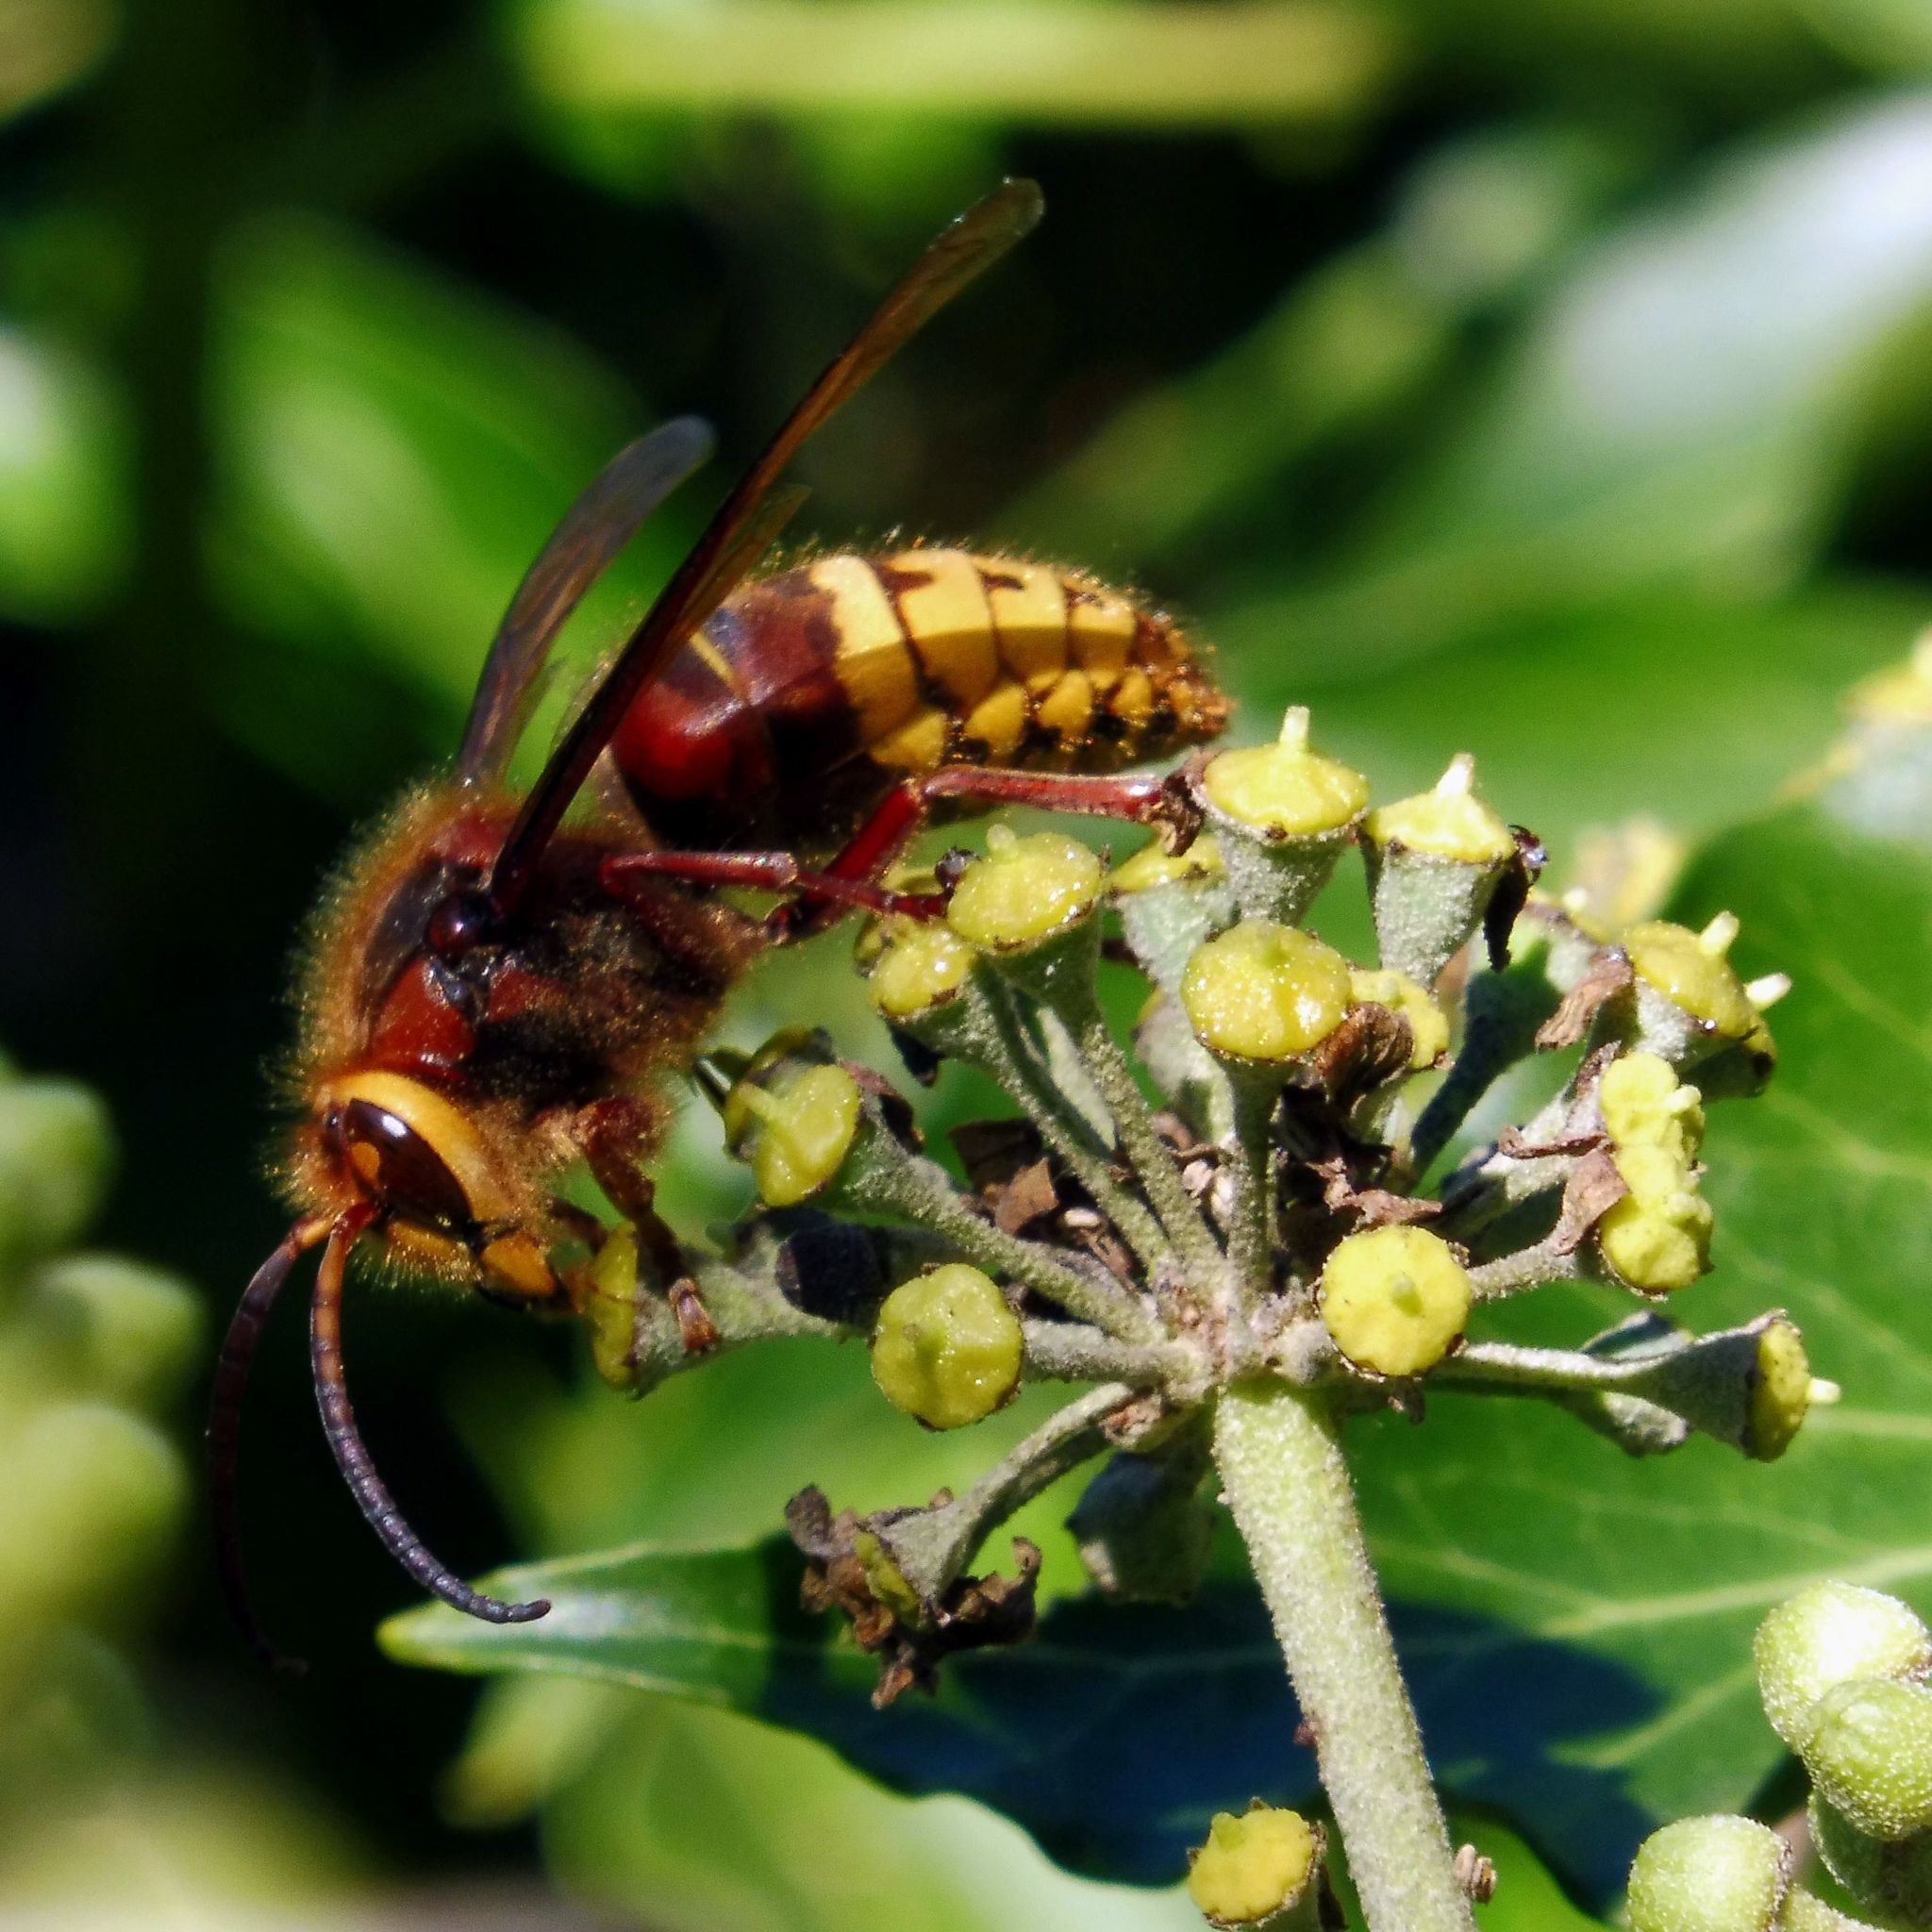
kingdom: Animalia
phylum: Arthropoda
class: Insecta
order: Hymenoptera
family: Vespidae
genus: Vespa
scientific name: Vespa crabro
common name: Hornet
